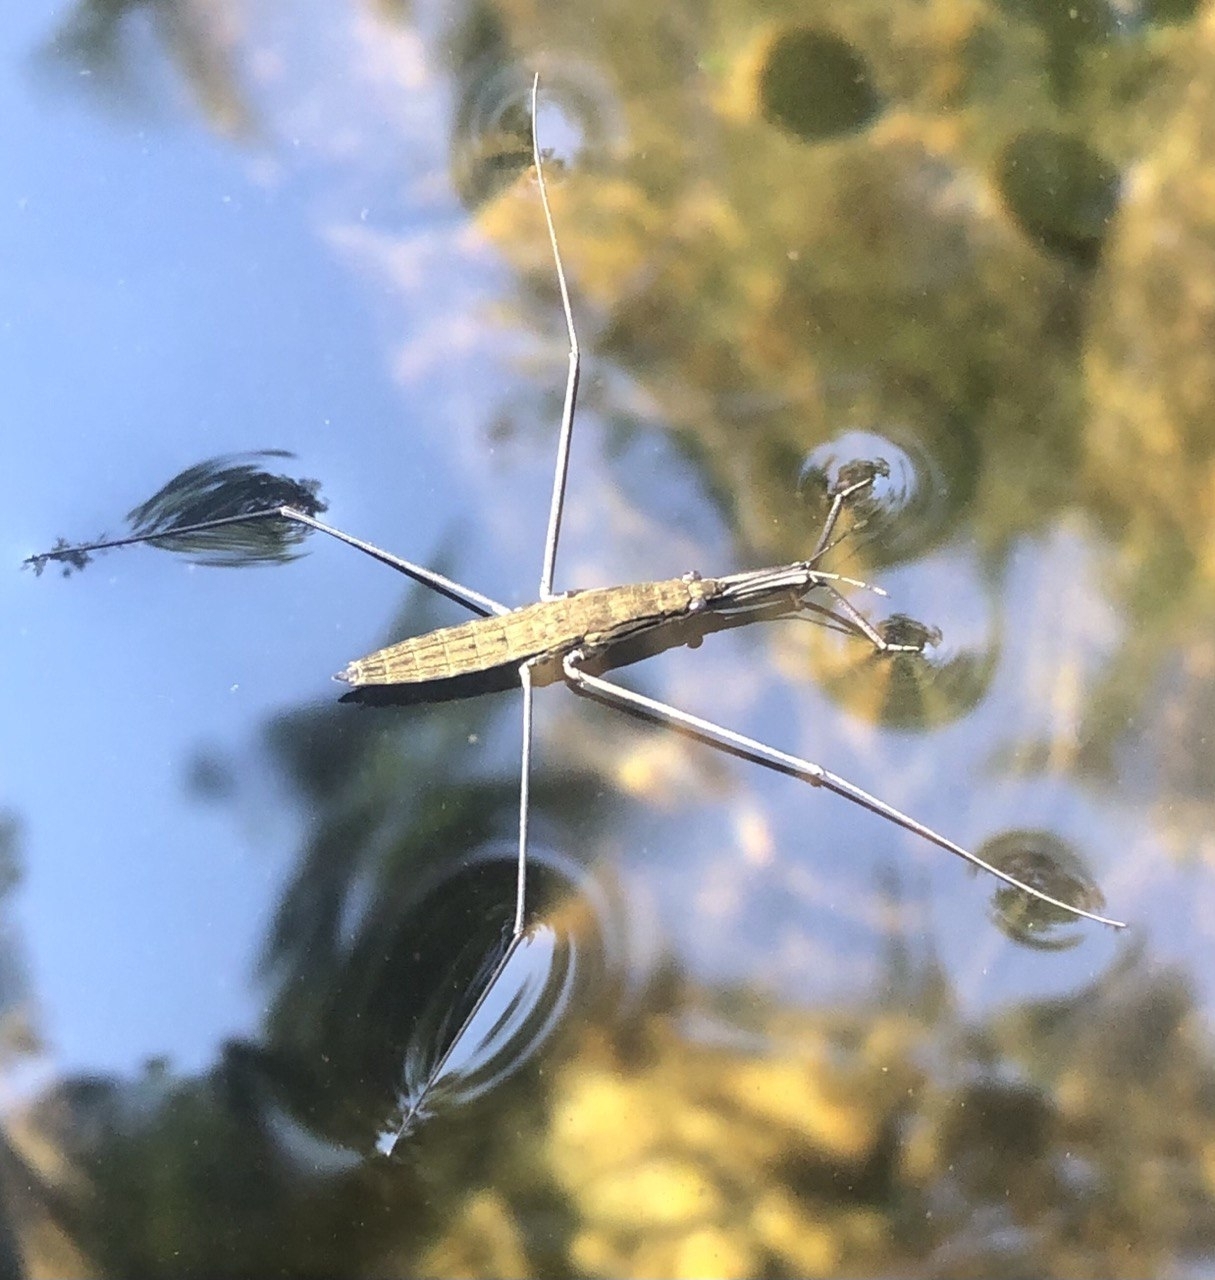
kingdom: Animalia
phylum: Arthropoda
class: Insecta
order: Hemiptera
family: Gerridae
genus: Aquarius
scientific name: Aquarius najas
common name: River skater
